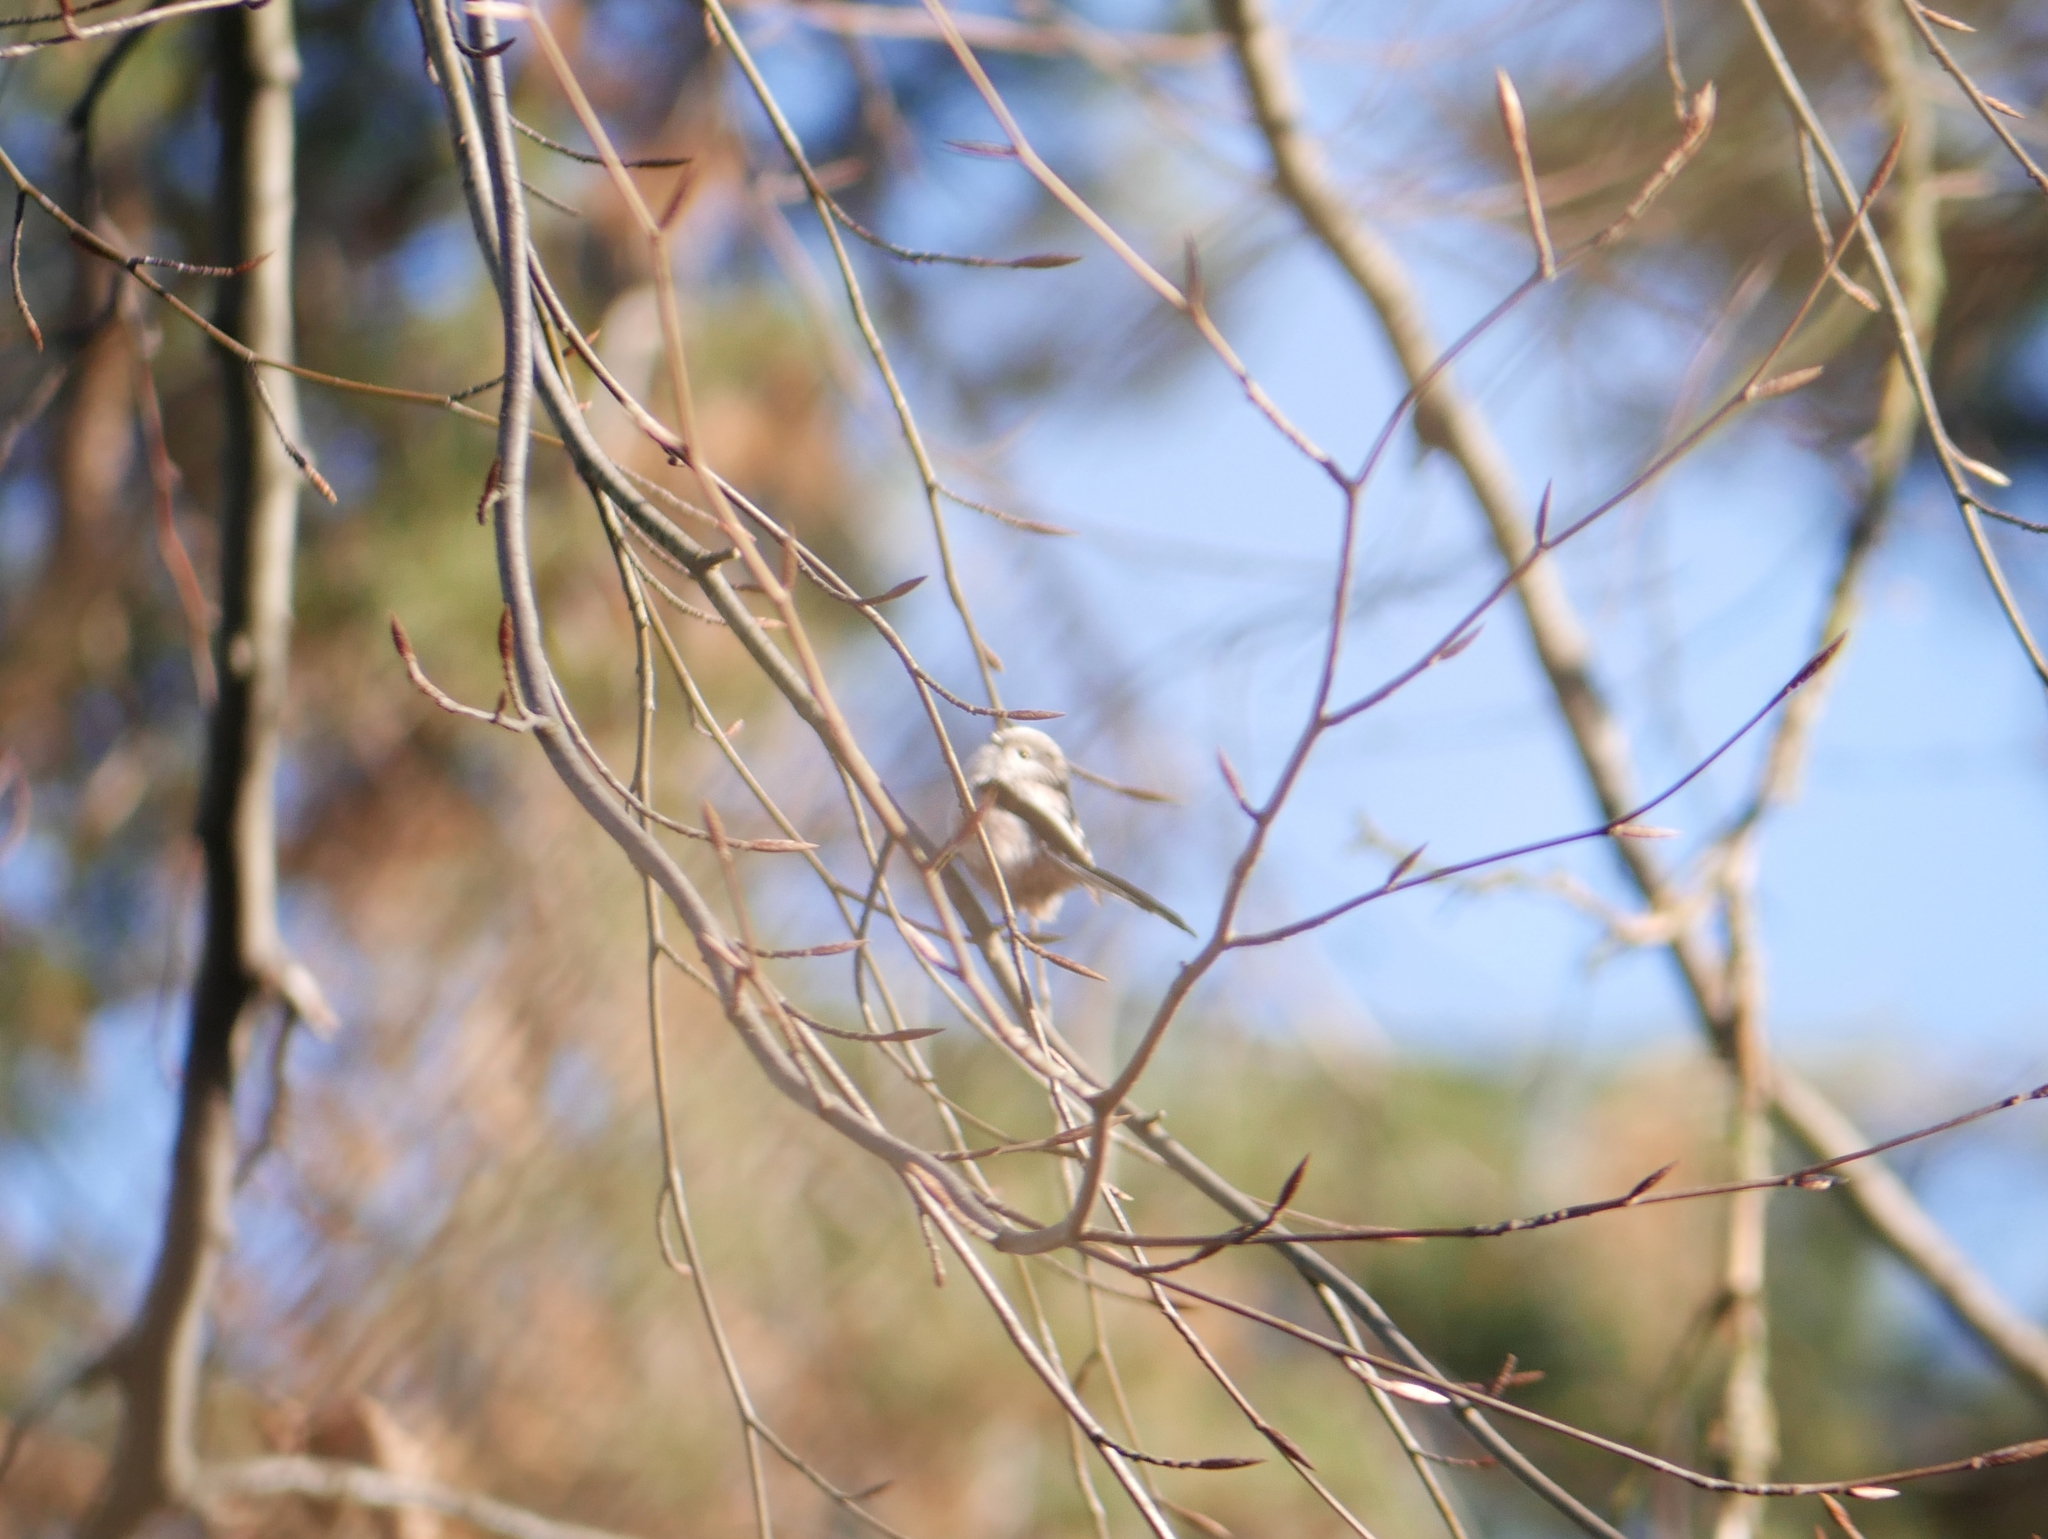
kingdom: Animalia
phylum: Chordata
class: Aves
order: Passeriformes
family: Aegithalidae
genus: Aegithalos
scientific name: Aegithalos caudatus
